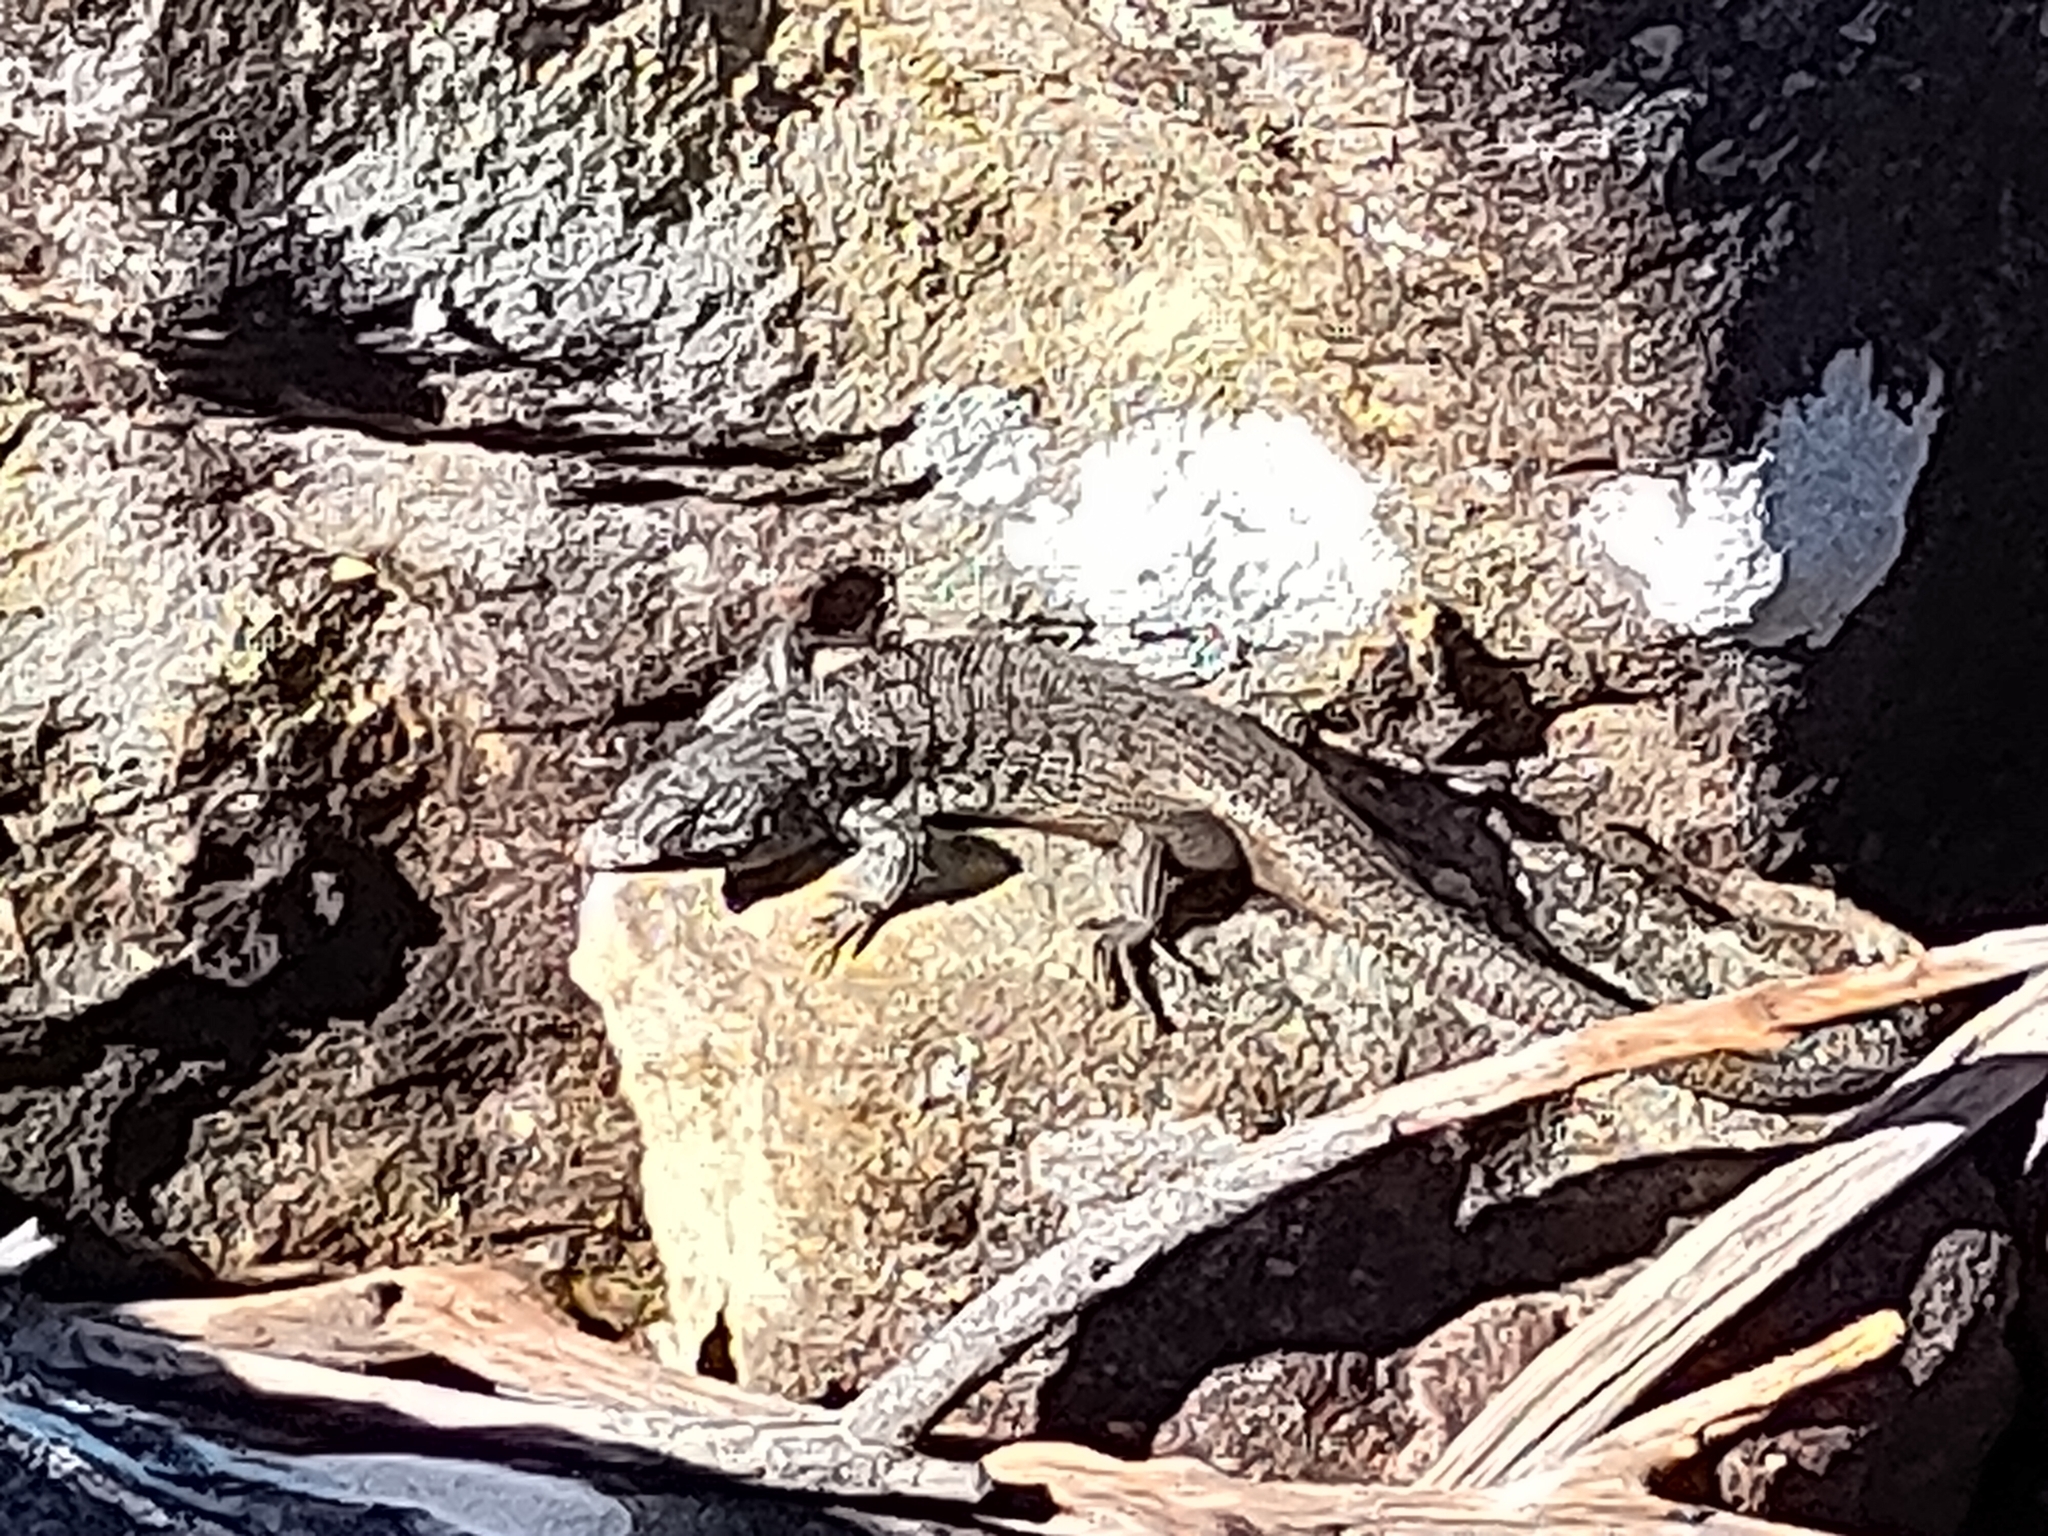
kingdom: Animalia
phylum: Chordata
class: Squamata
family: Scincidae
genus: Egernia
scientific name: Egernia cunninghami
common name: Cunningham's skink
